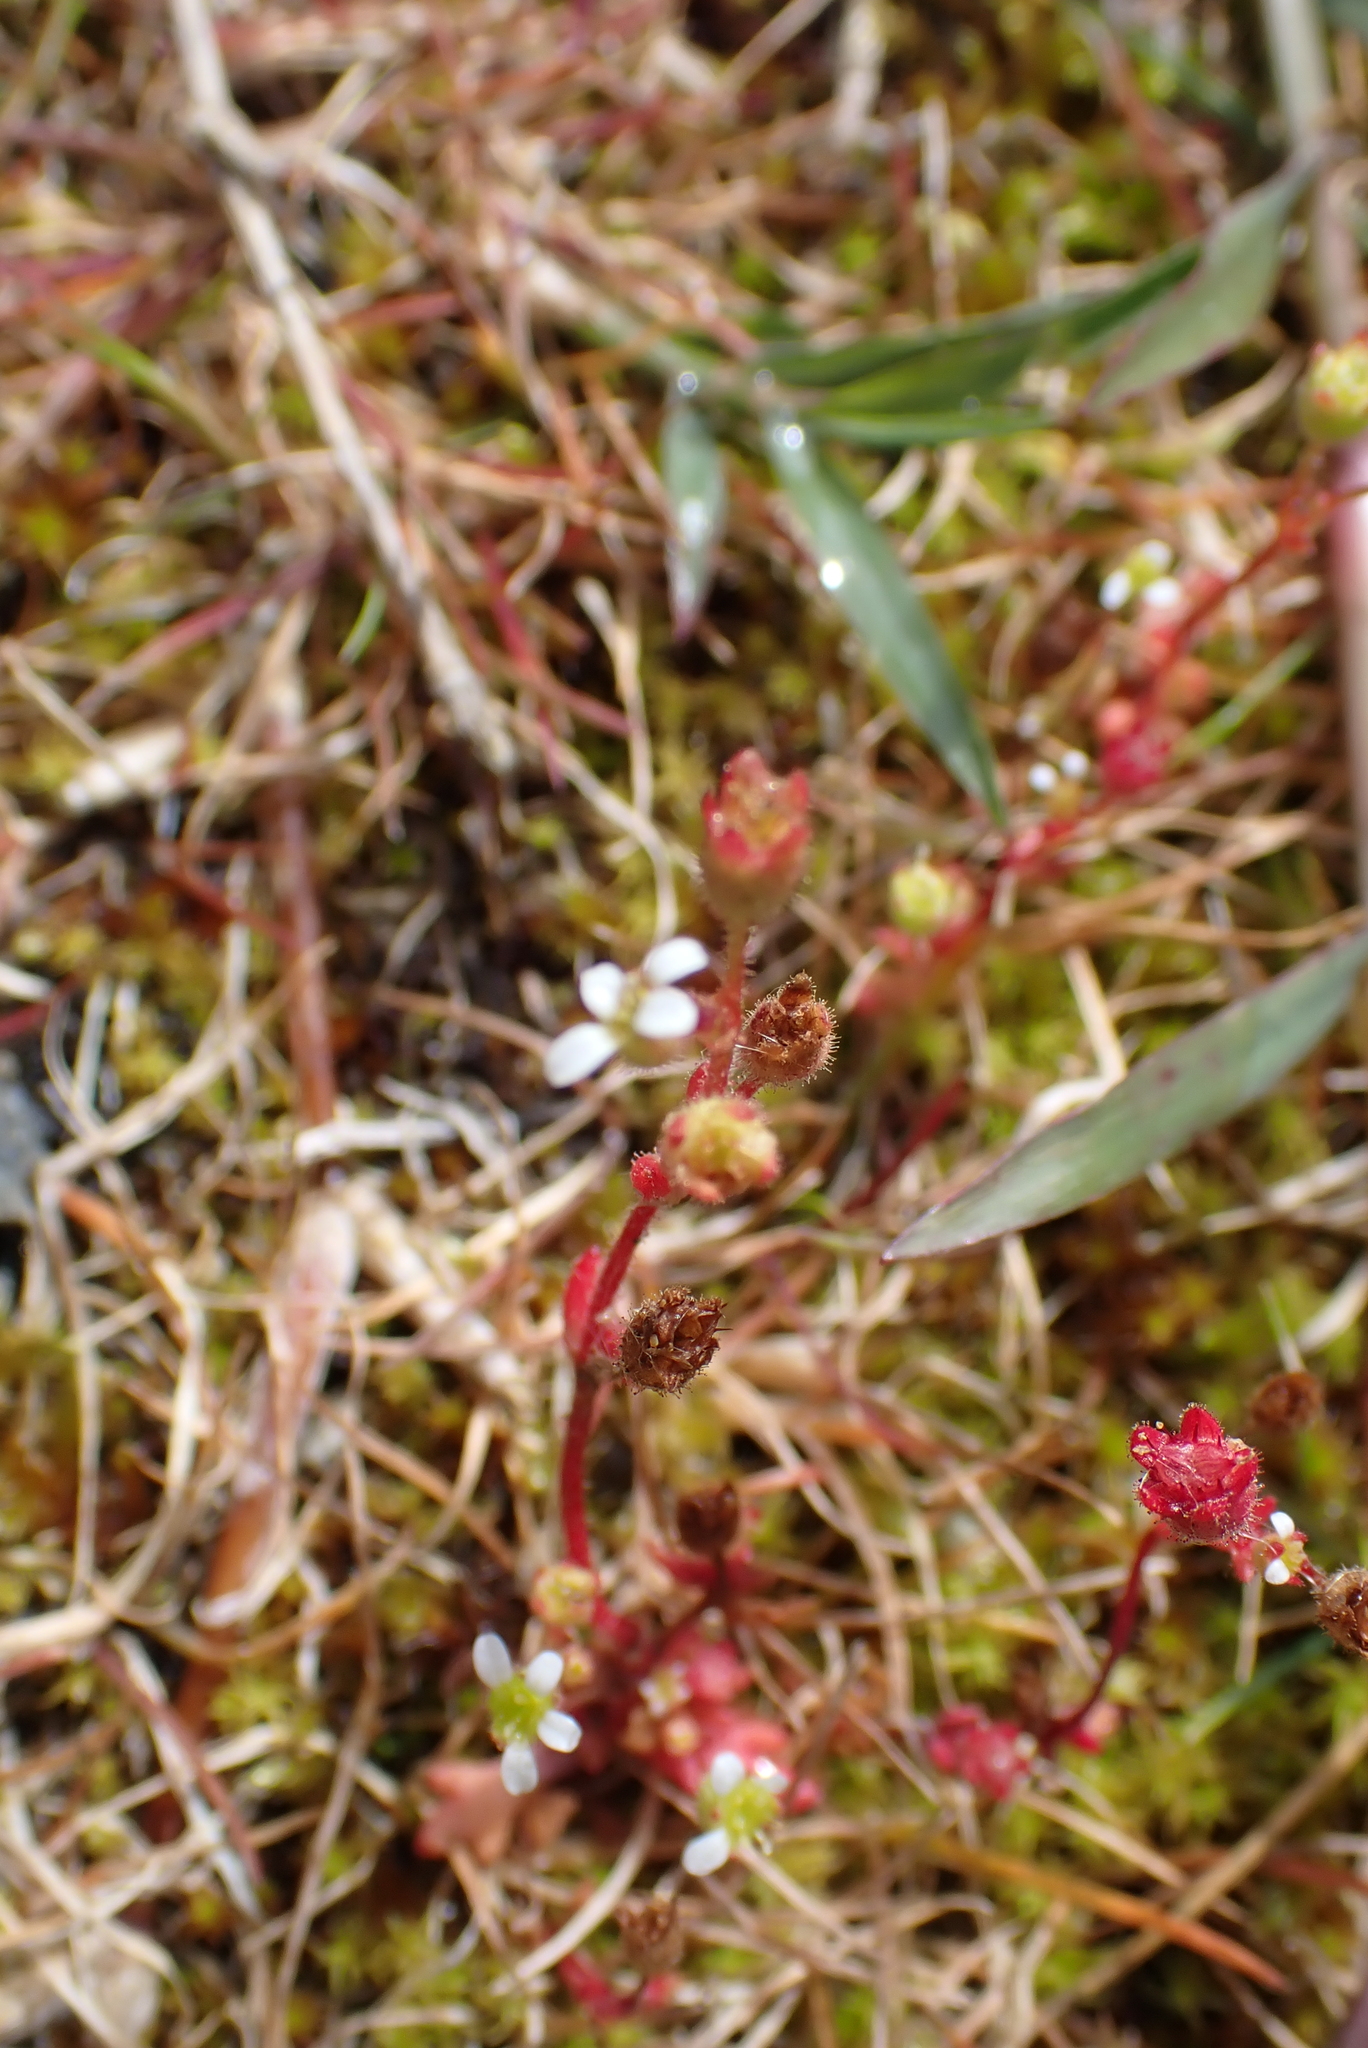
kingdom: Plantae
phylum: Tracheophyta
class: Magnoliopsida
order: Saxifragales
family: Saxifragaceae
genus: Saxifraga
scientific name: Saxifraga tridactylites
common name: Rue-leaved saxifrage
